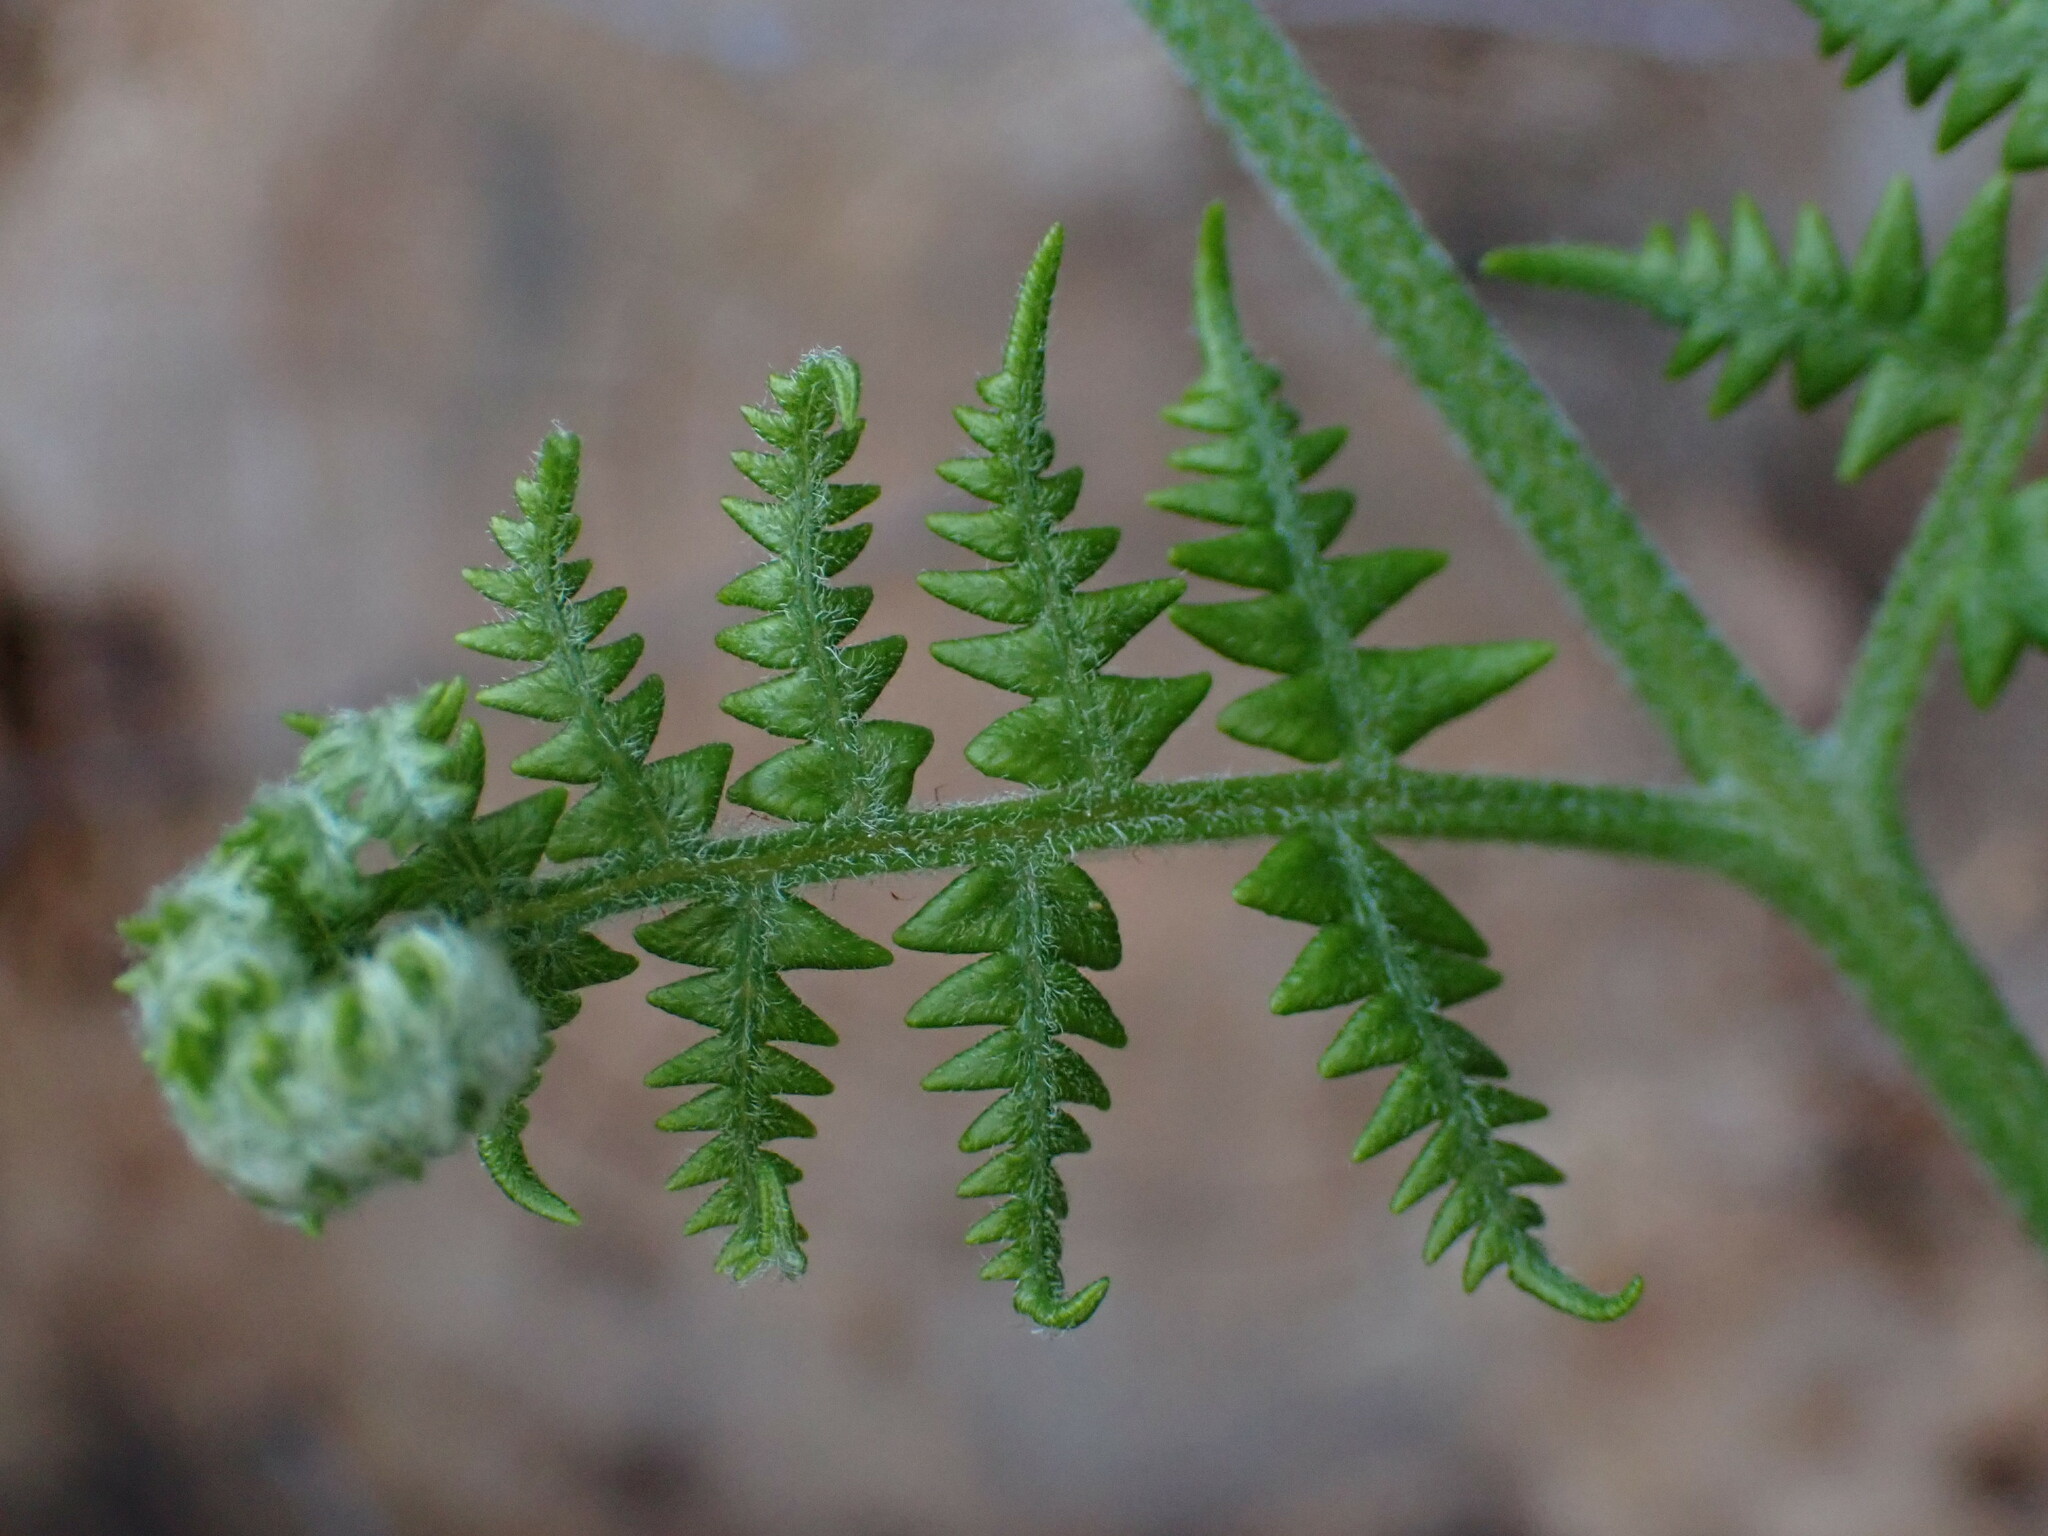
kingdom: Plantae
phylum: Tracheophyta
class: Polypodiopsida
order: Polypodiales
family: Dennstaedtiaceae
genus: Pteridium
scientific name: Pteridium aquilinum
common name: Bracken
